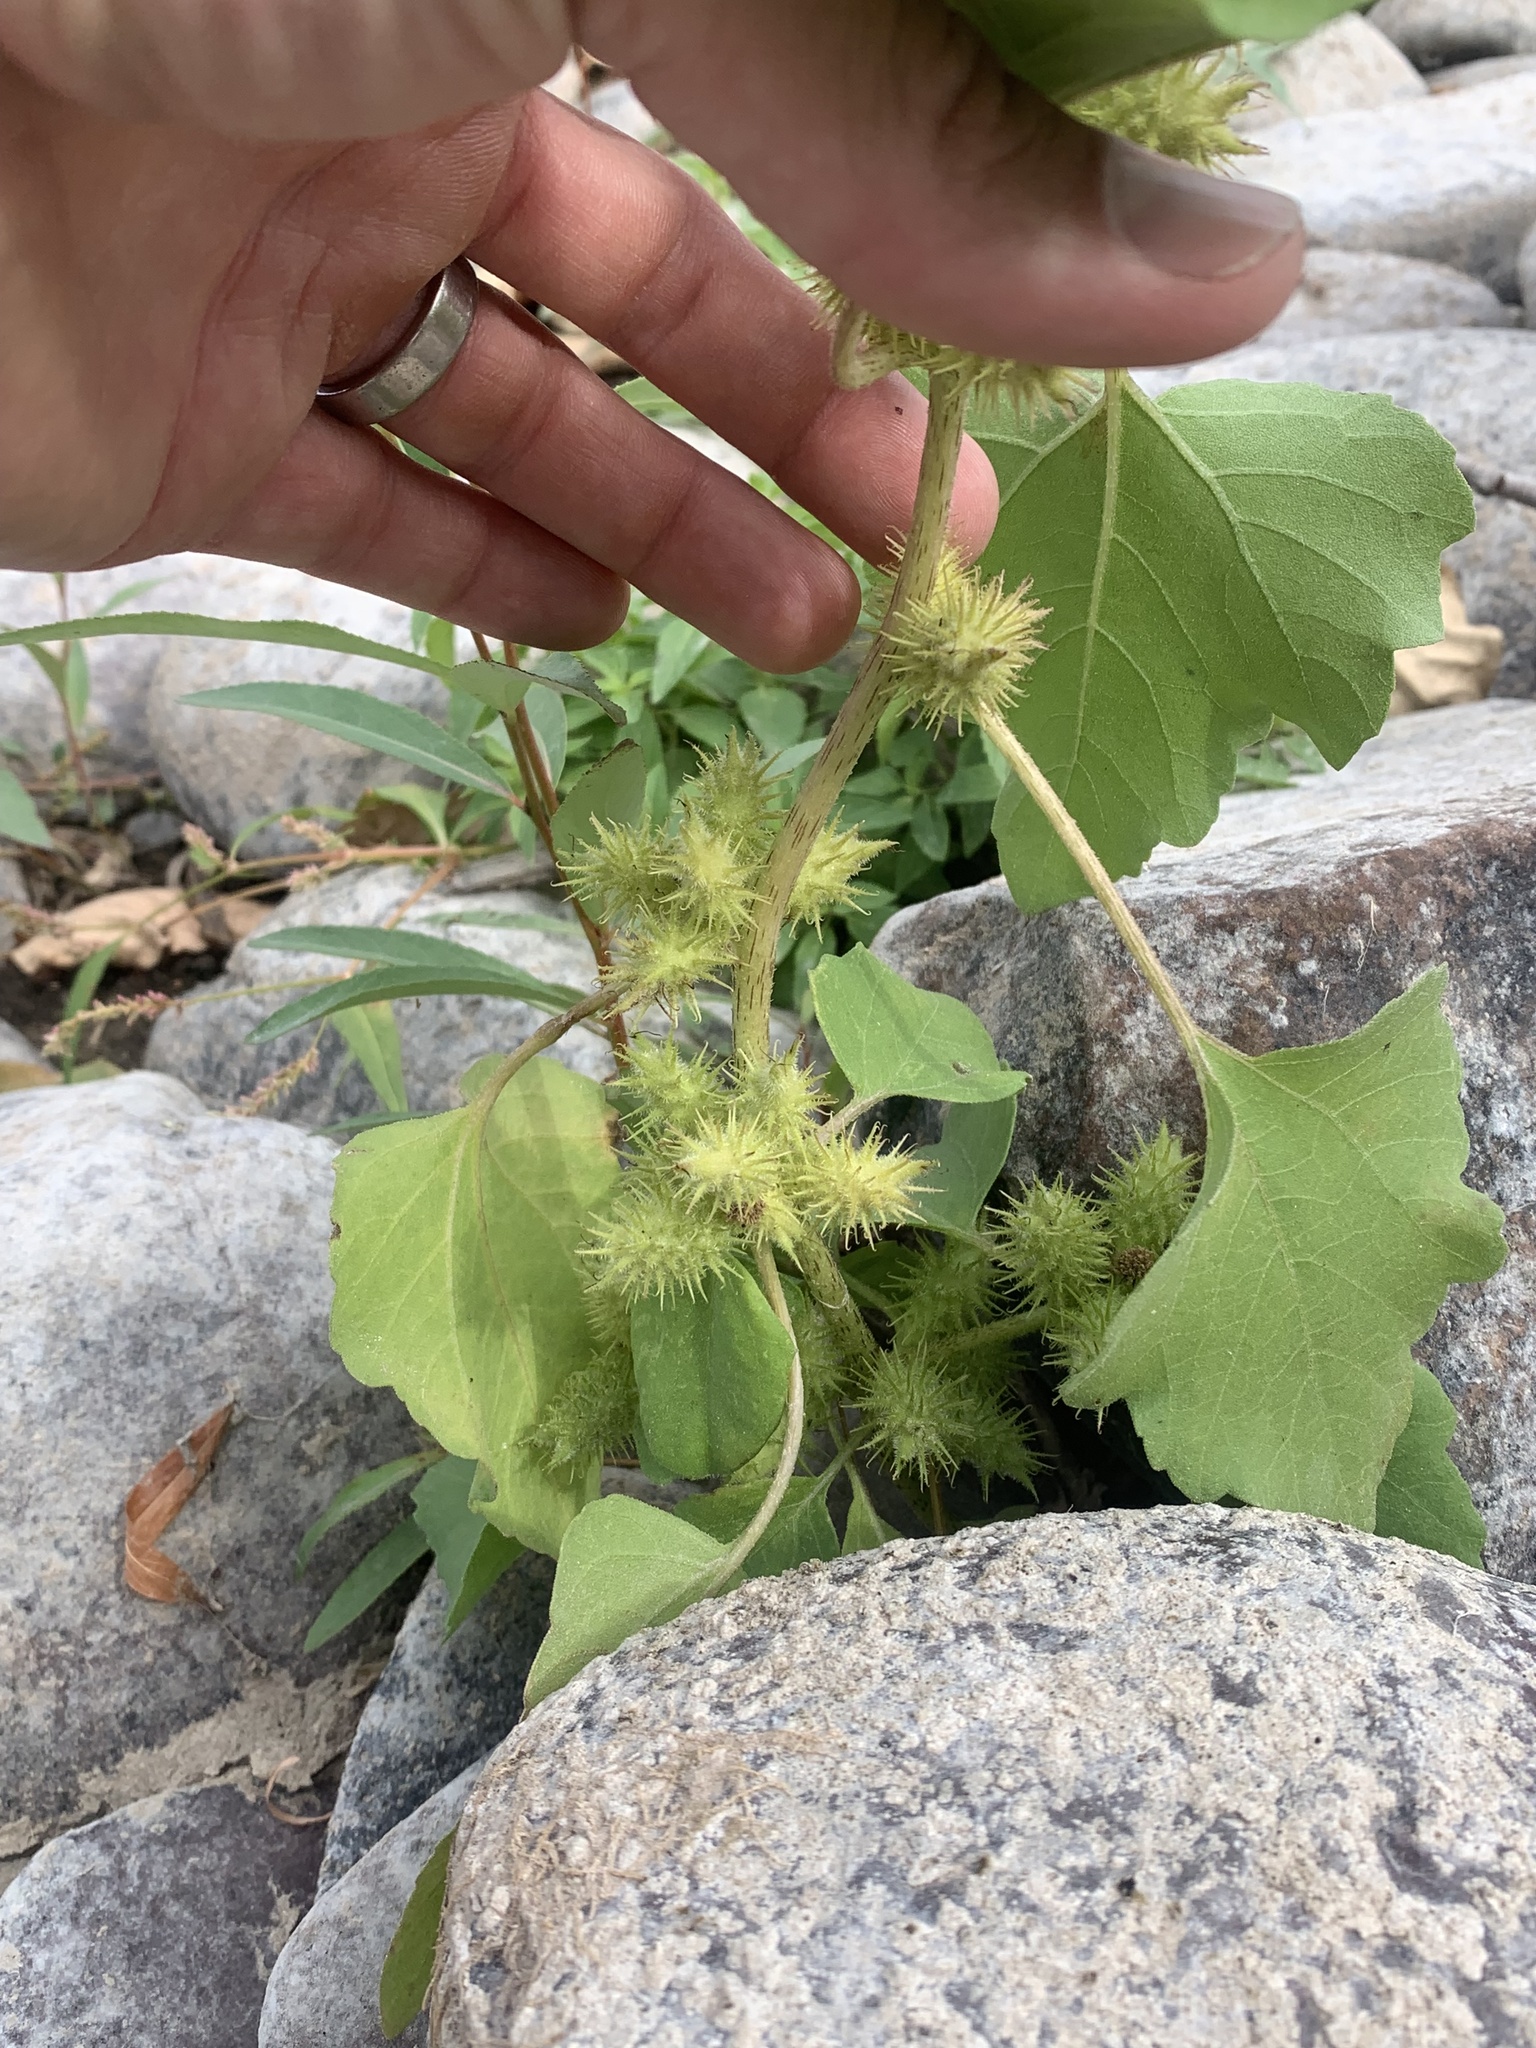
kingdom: Plantae
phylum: Tracheophyta
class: Magnoliopsida
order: Asterales
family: Asteraceae
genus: Xanthium
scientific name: Xanthium strumarium
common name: Rough cocklebur
